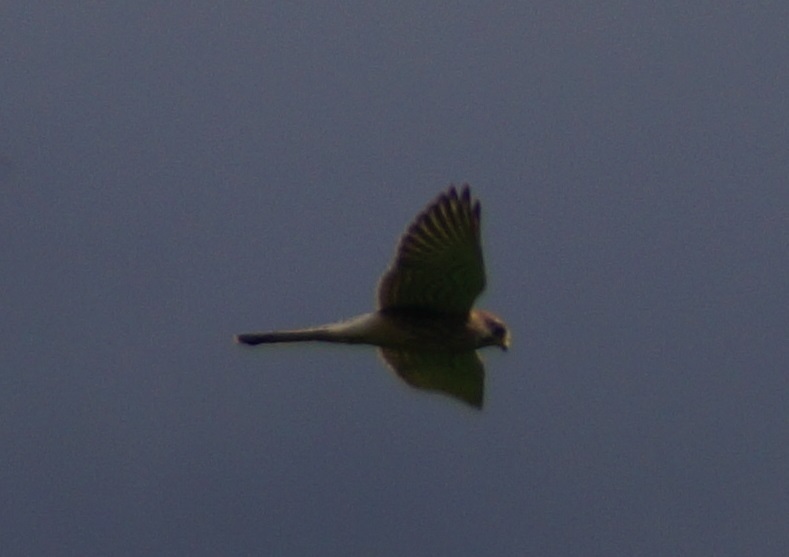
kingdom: Animalia
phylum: Chordata
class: Aves
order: Falconiformes
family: Falconidae
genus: Falco
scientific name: Falco tinnunculus
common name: Common kestrel
